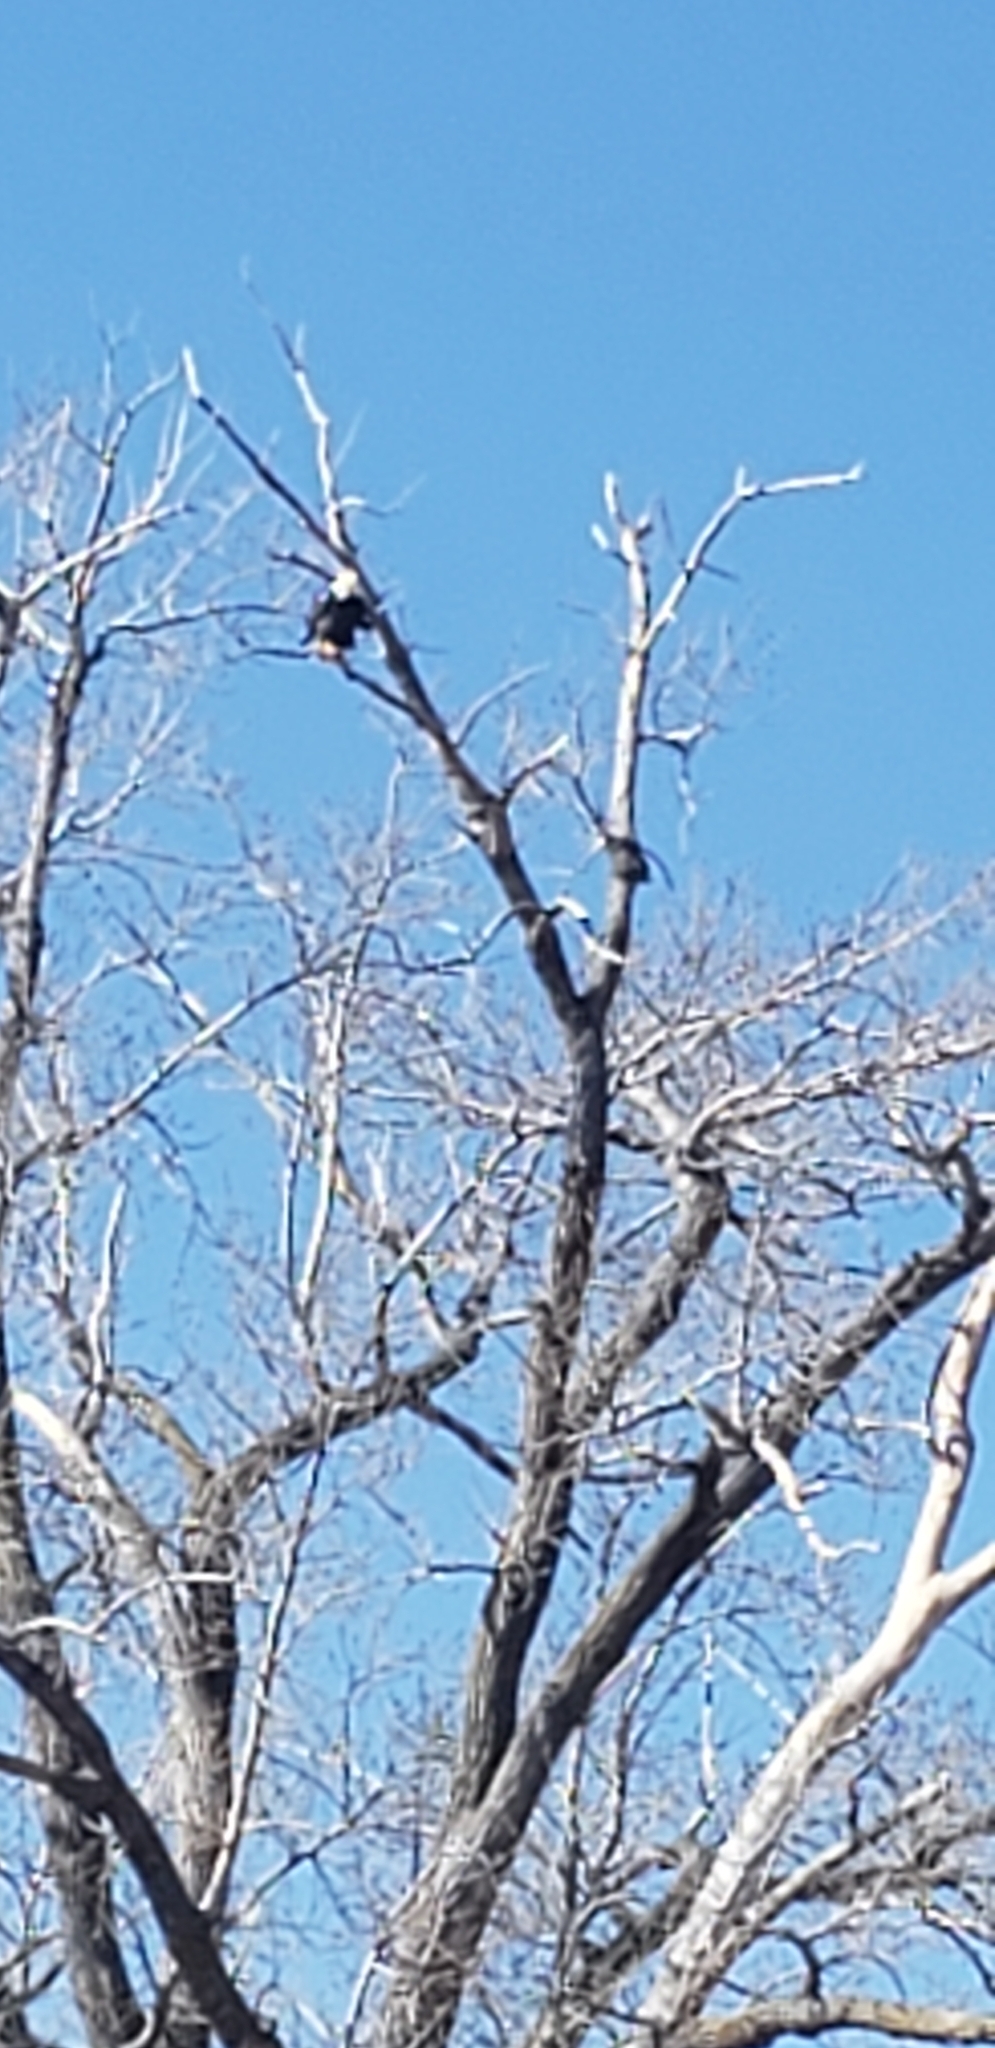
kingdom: Animalia
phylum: Chordata
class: Aves
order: Accipitriformes
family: Accipitridae
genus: Haliaeetus
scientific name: Haliaeetus leucocephalus
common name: Bald eagle
